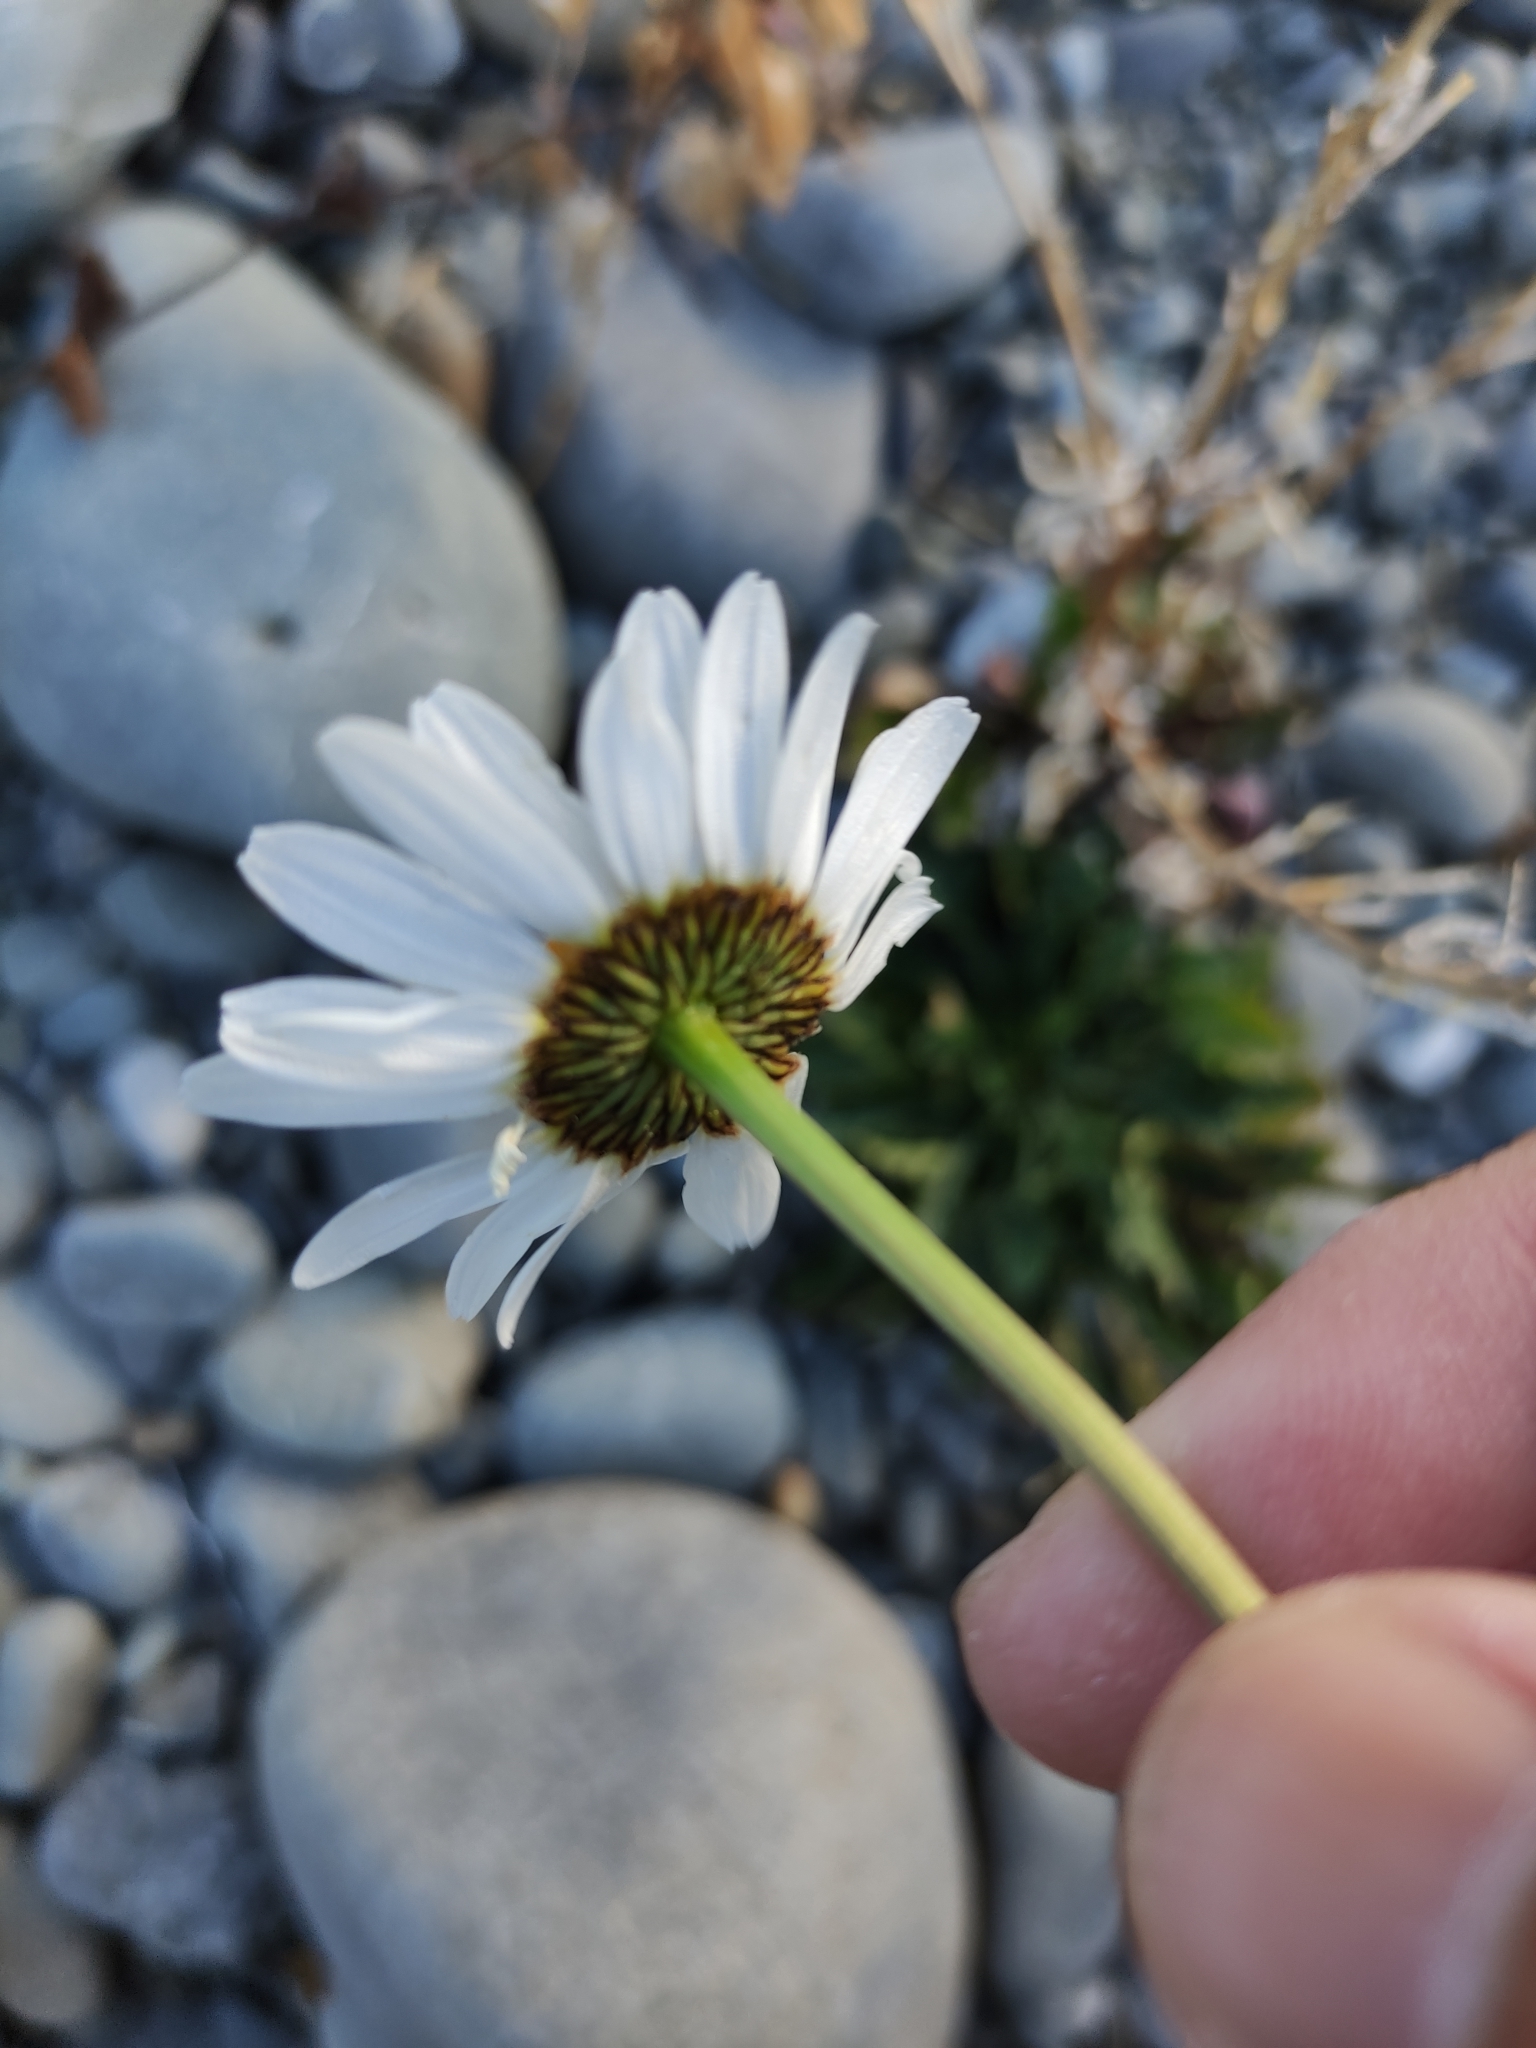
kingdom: Plantae
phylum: Tracheophyta
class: Magnoliopsida
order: Asterales
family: Asteraceae
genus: Leucanthemum
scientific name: Leucanthemum vulgare
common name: Oxeye daisy
